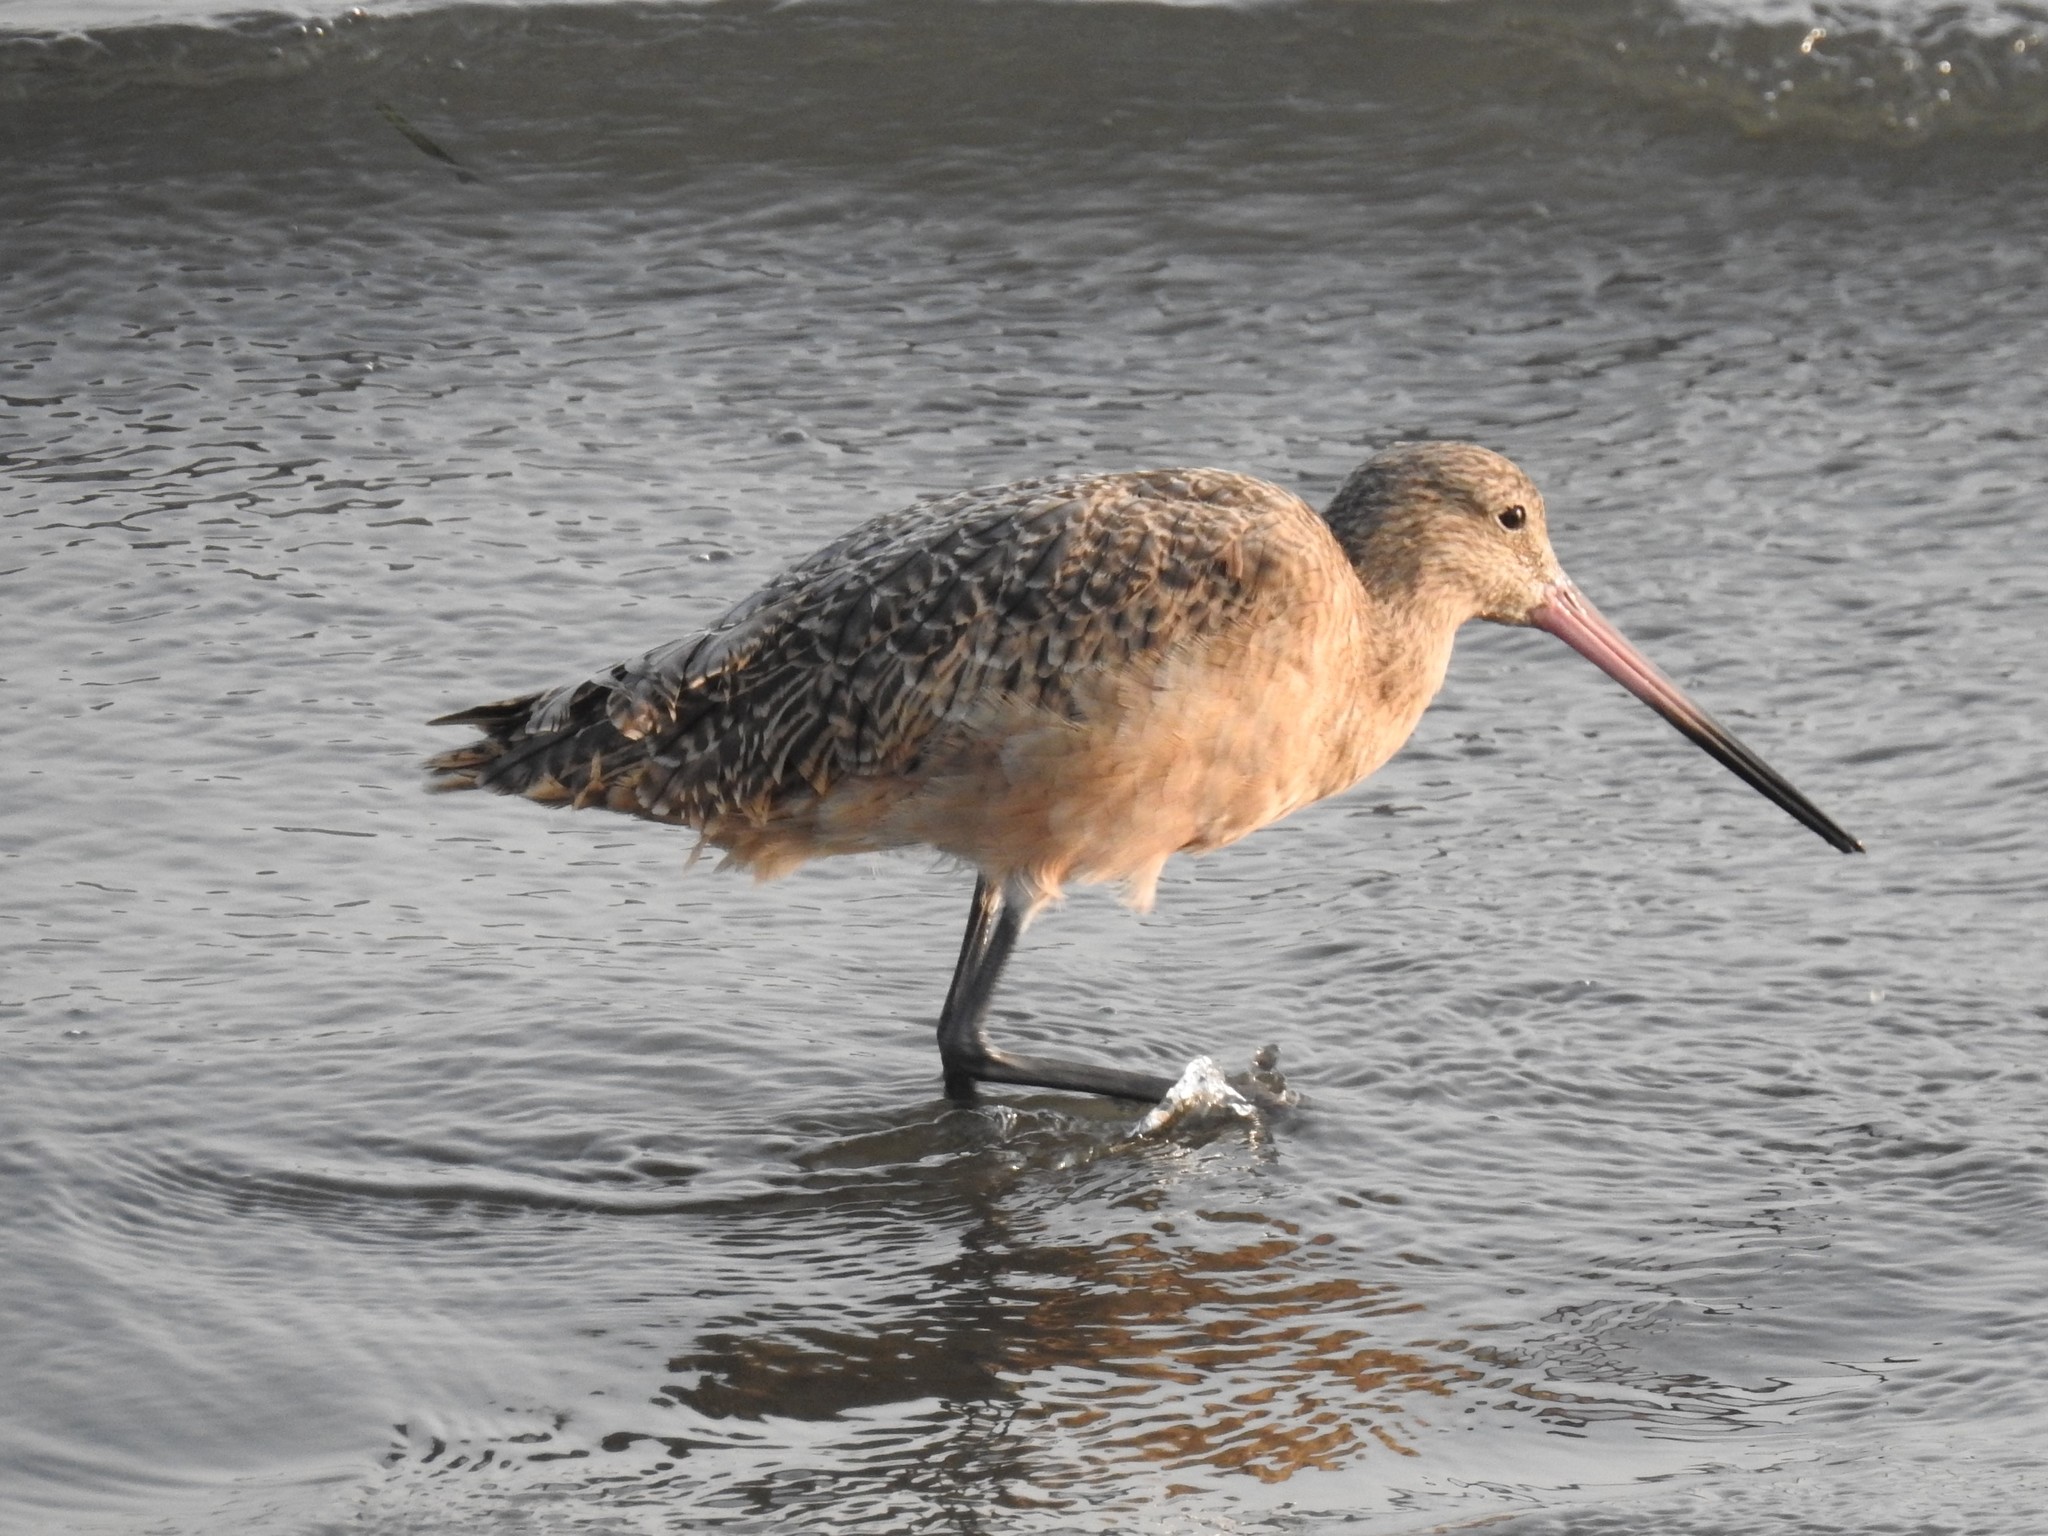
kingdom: Animalia
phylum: Chordata
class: Aves
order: Charadriiformes
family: Scolopacidae
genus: Limosa
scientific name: Limosa fedoa
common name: Marbled godwit
